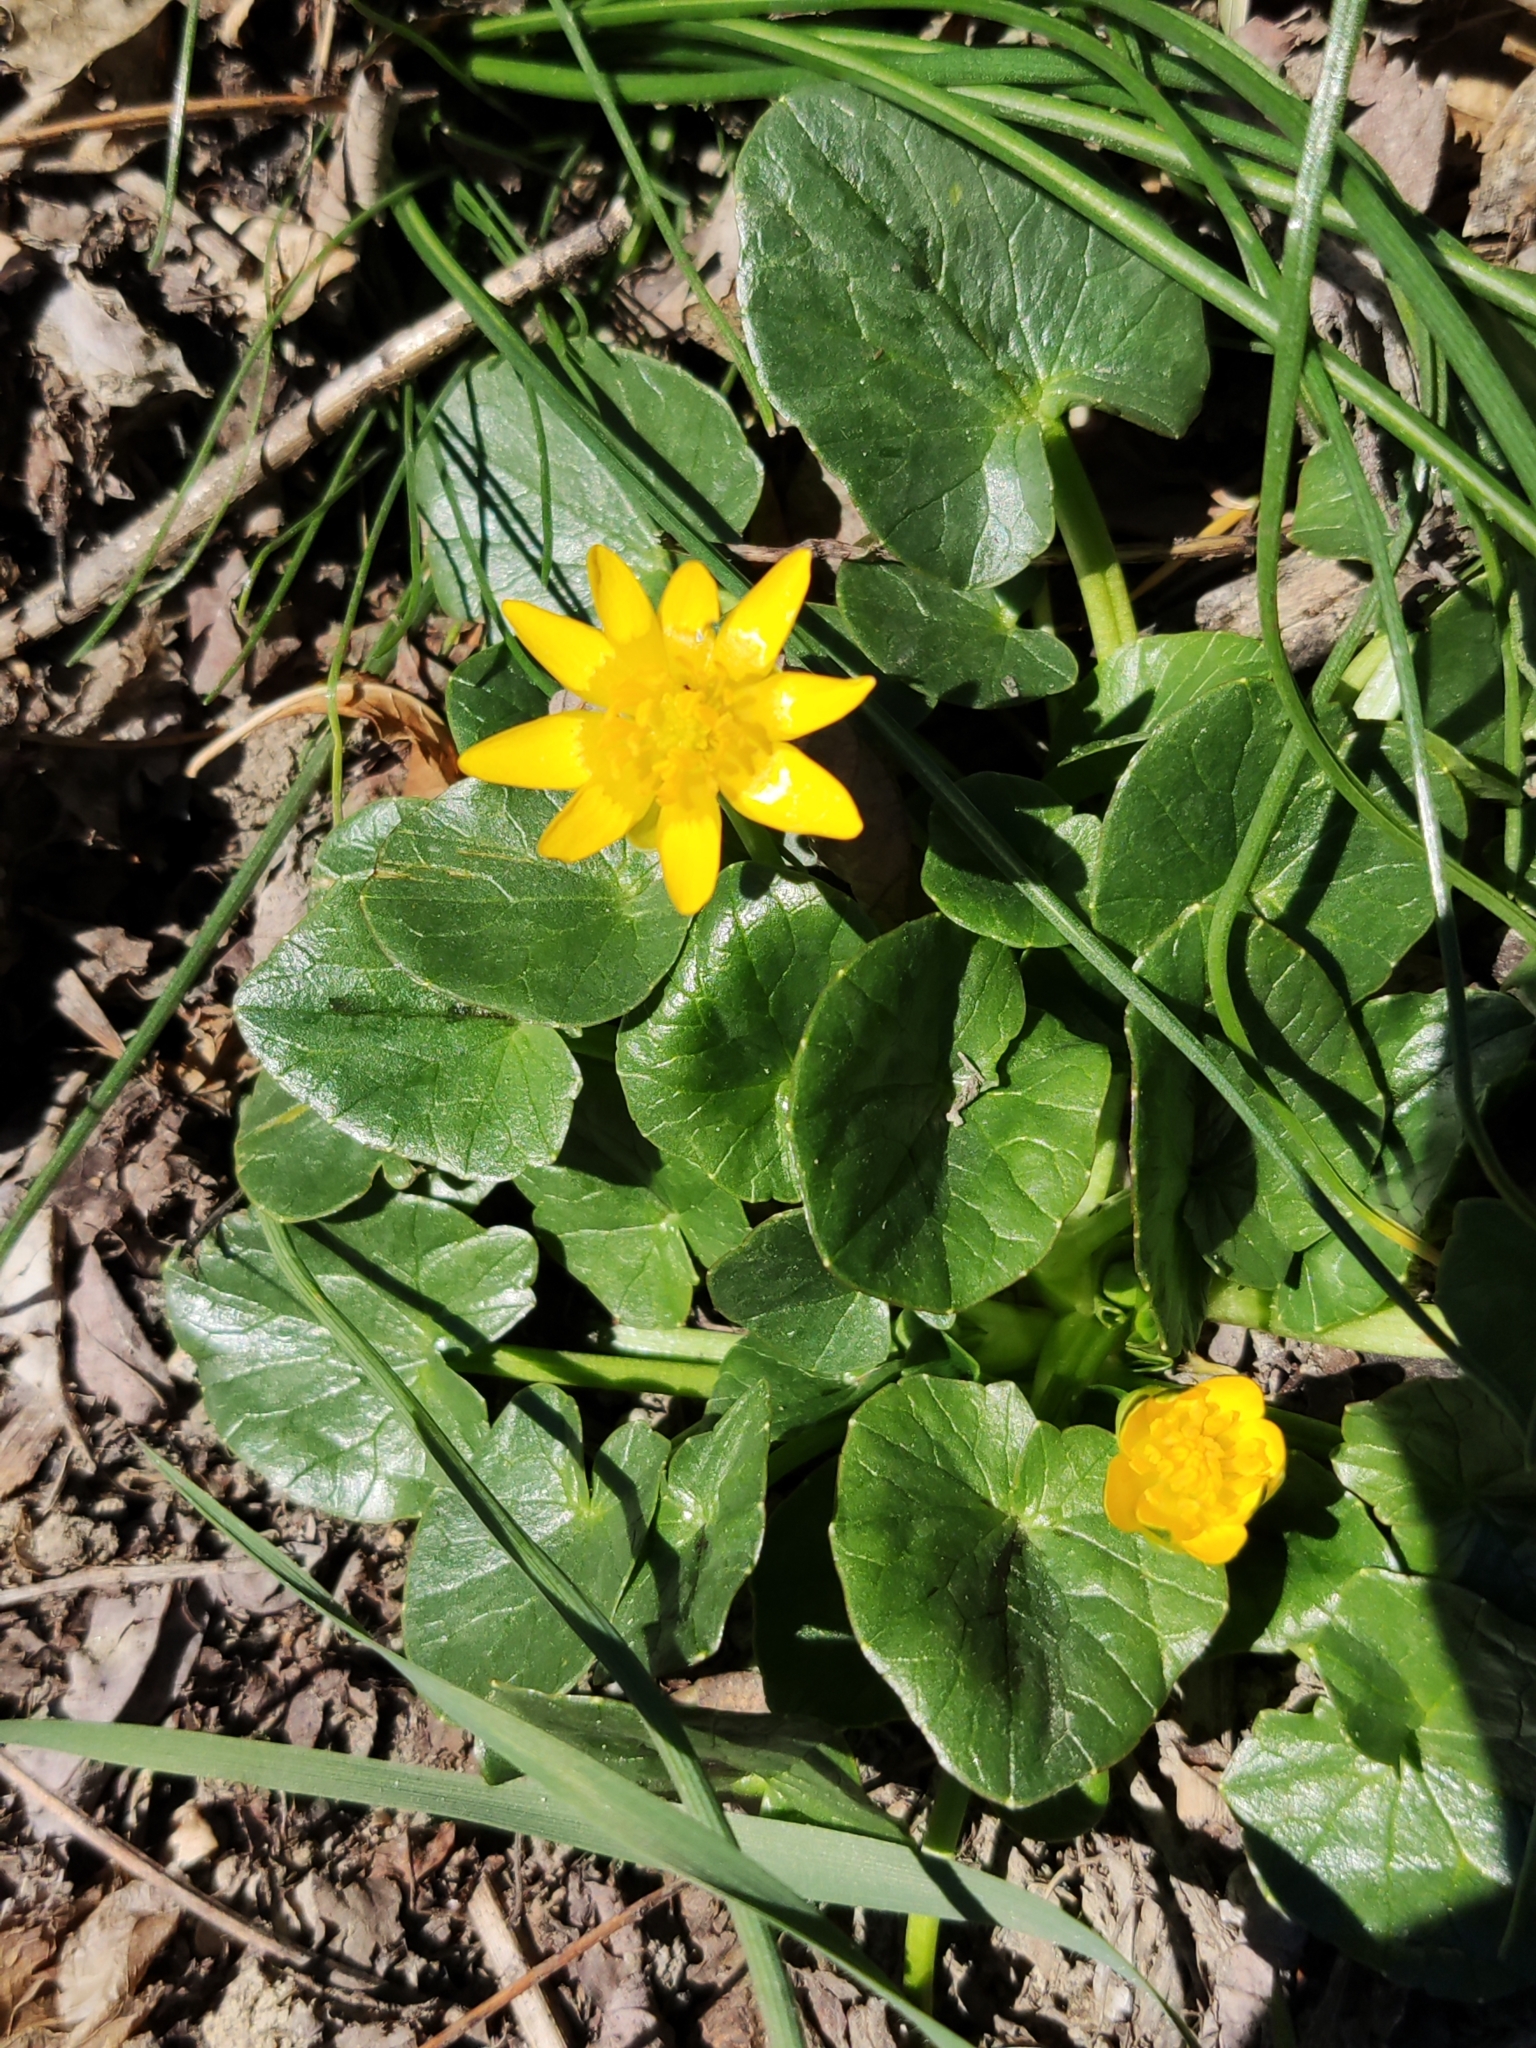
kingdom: Plantae
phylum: Tracheophyta
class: Magnoliopsida
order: Ranunculales
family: Ranunculaceae
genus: Ficaria
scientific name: Ficaria verna
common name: Lesser celandine
